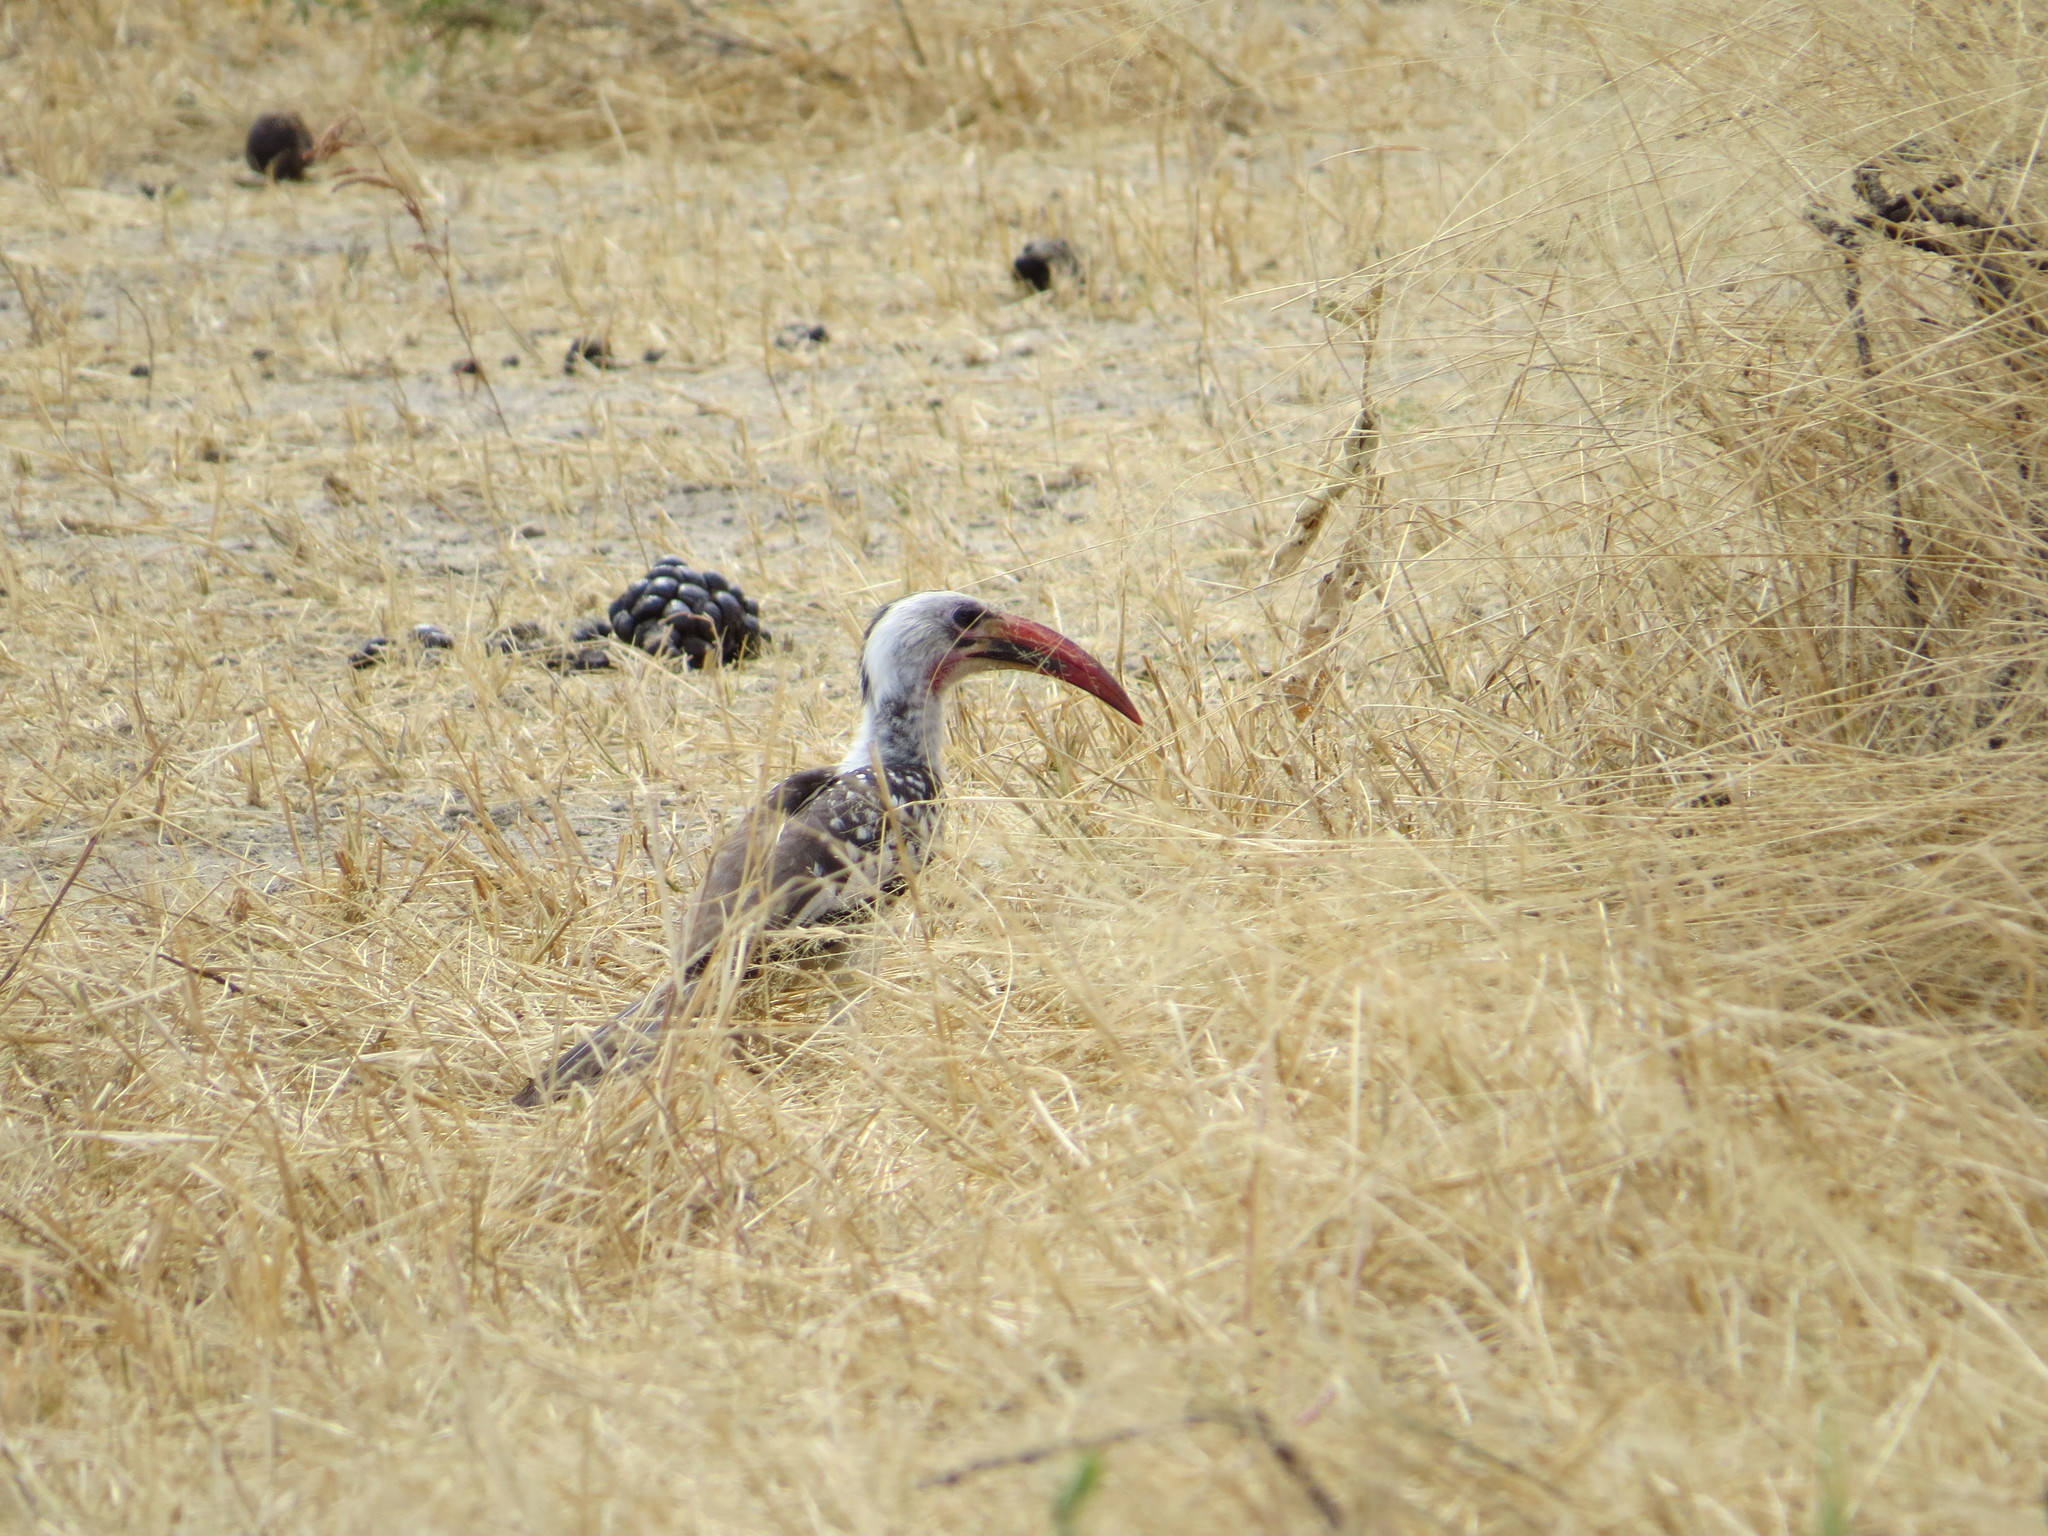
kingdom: Animalia
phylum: Chordata
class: Aves
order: Bucerotiformes
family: Bucerotidae
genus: Tockus
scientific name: Tockus erythrorhynchus
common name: Northern red-billed hornbill
